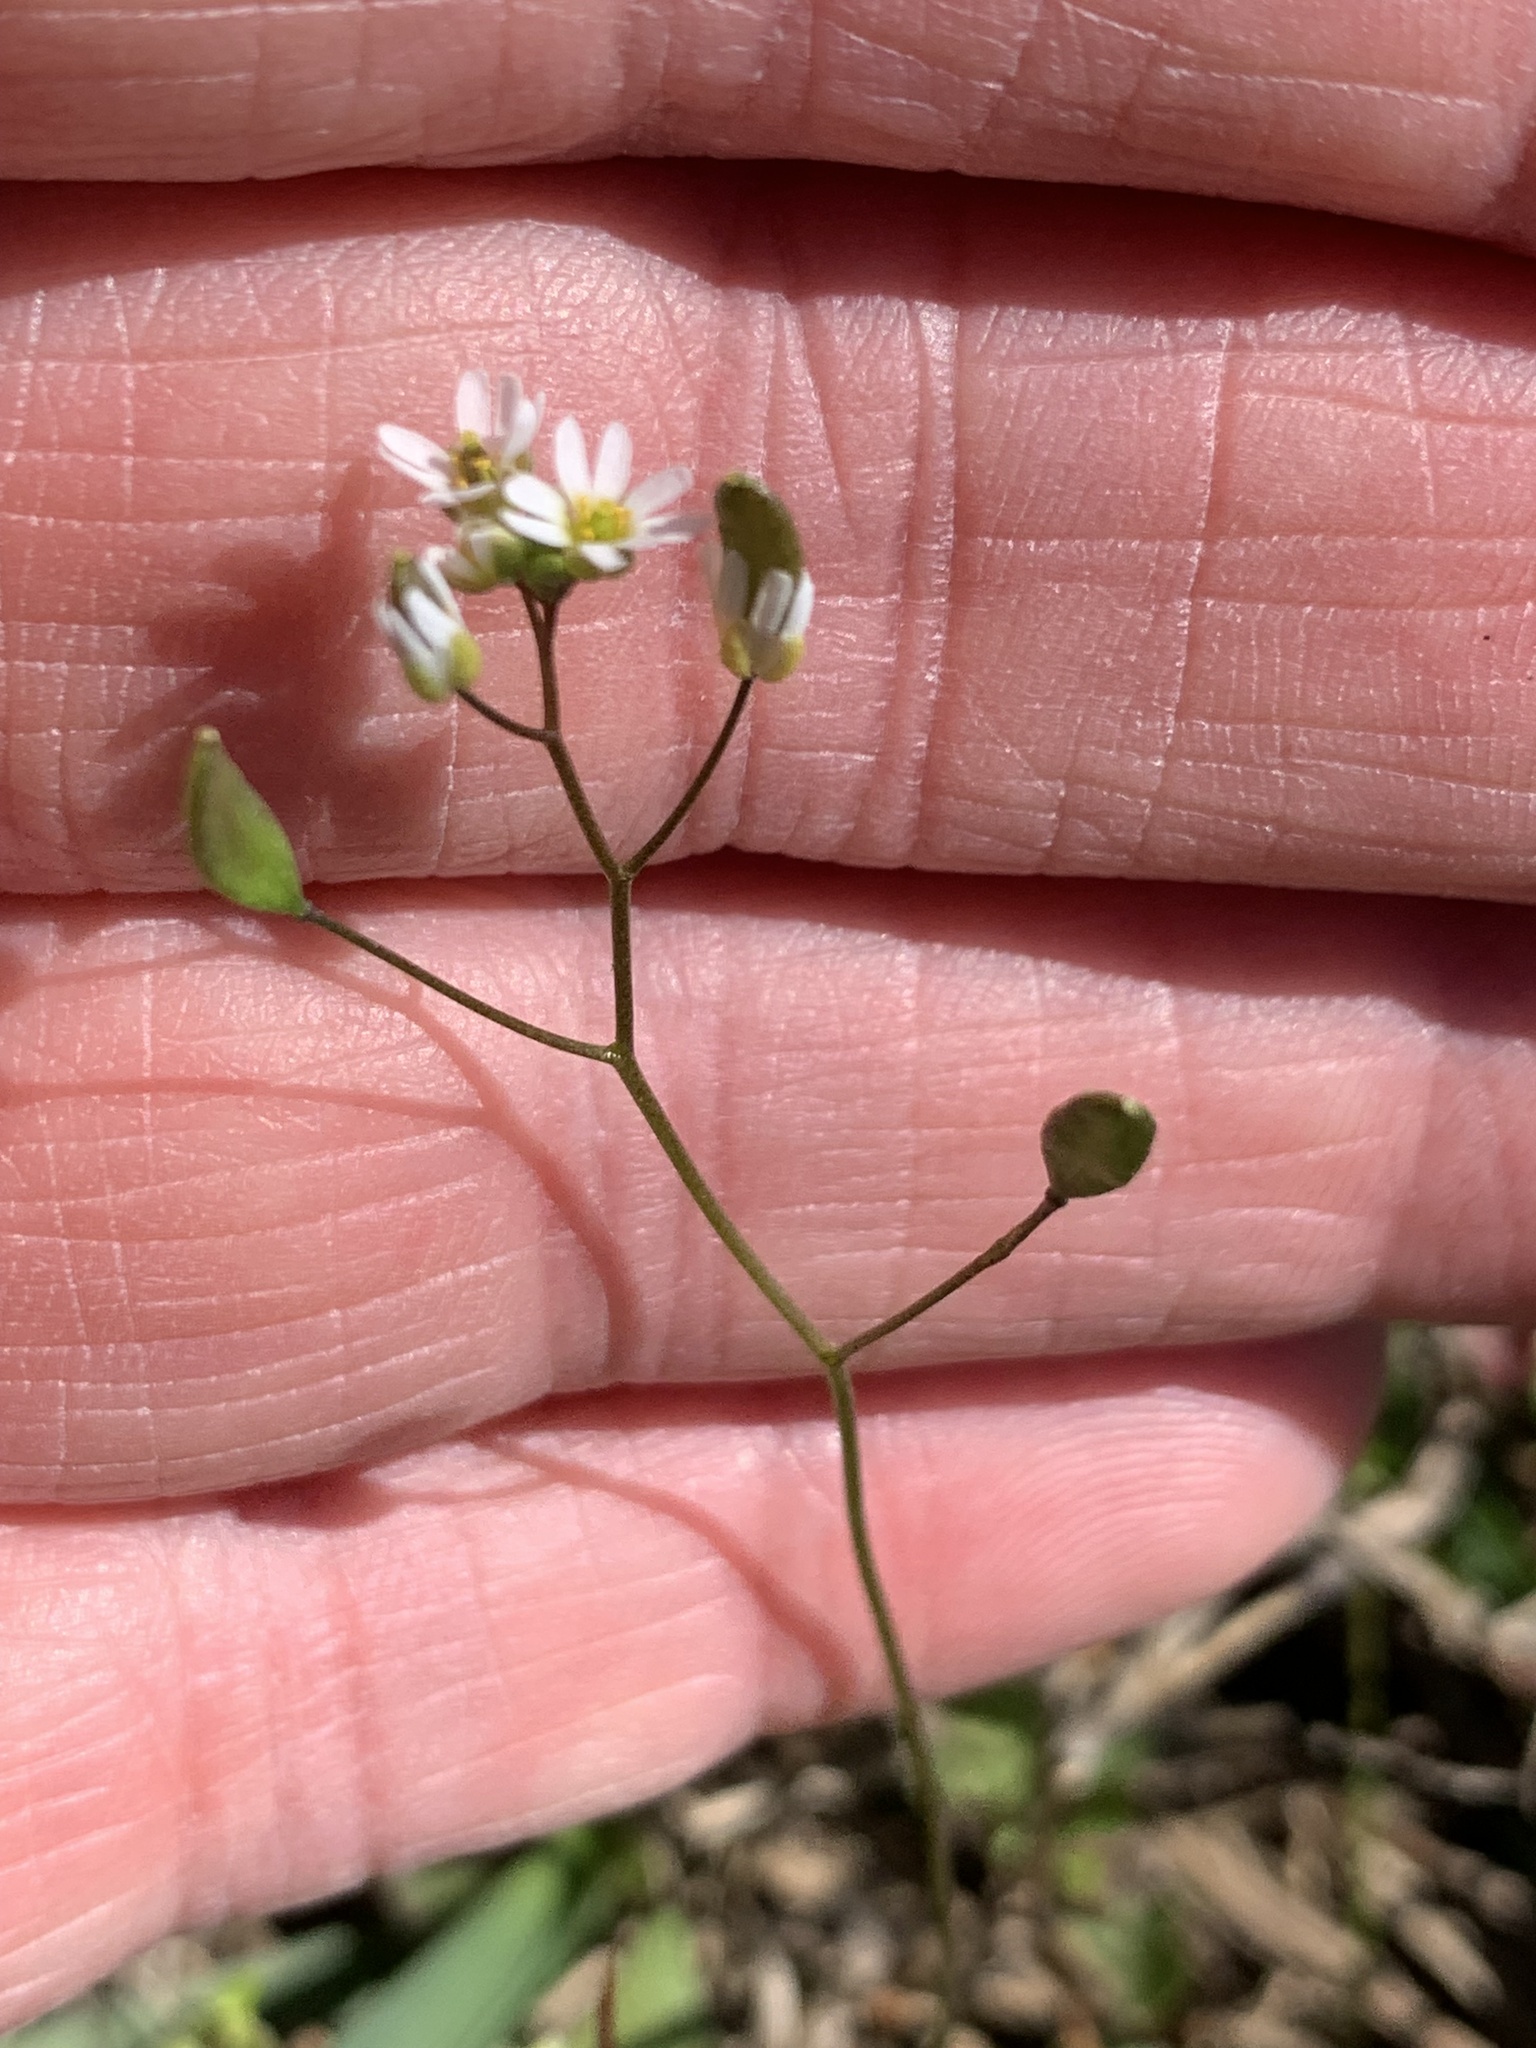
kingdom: Plantae
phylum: Tracheophyta
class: Magnoliopsida
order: Brassicales
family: Brassicaceae
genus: Draba
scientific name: Draba verna
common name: Spring draba
